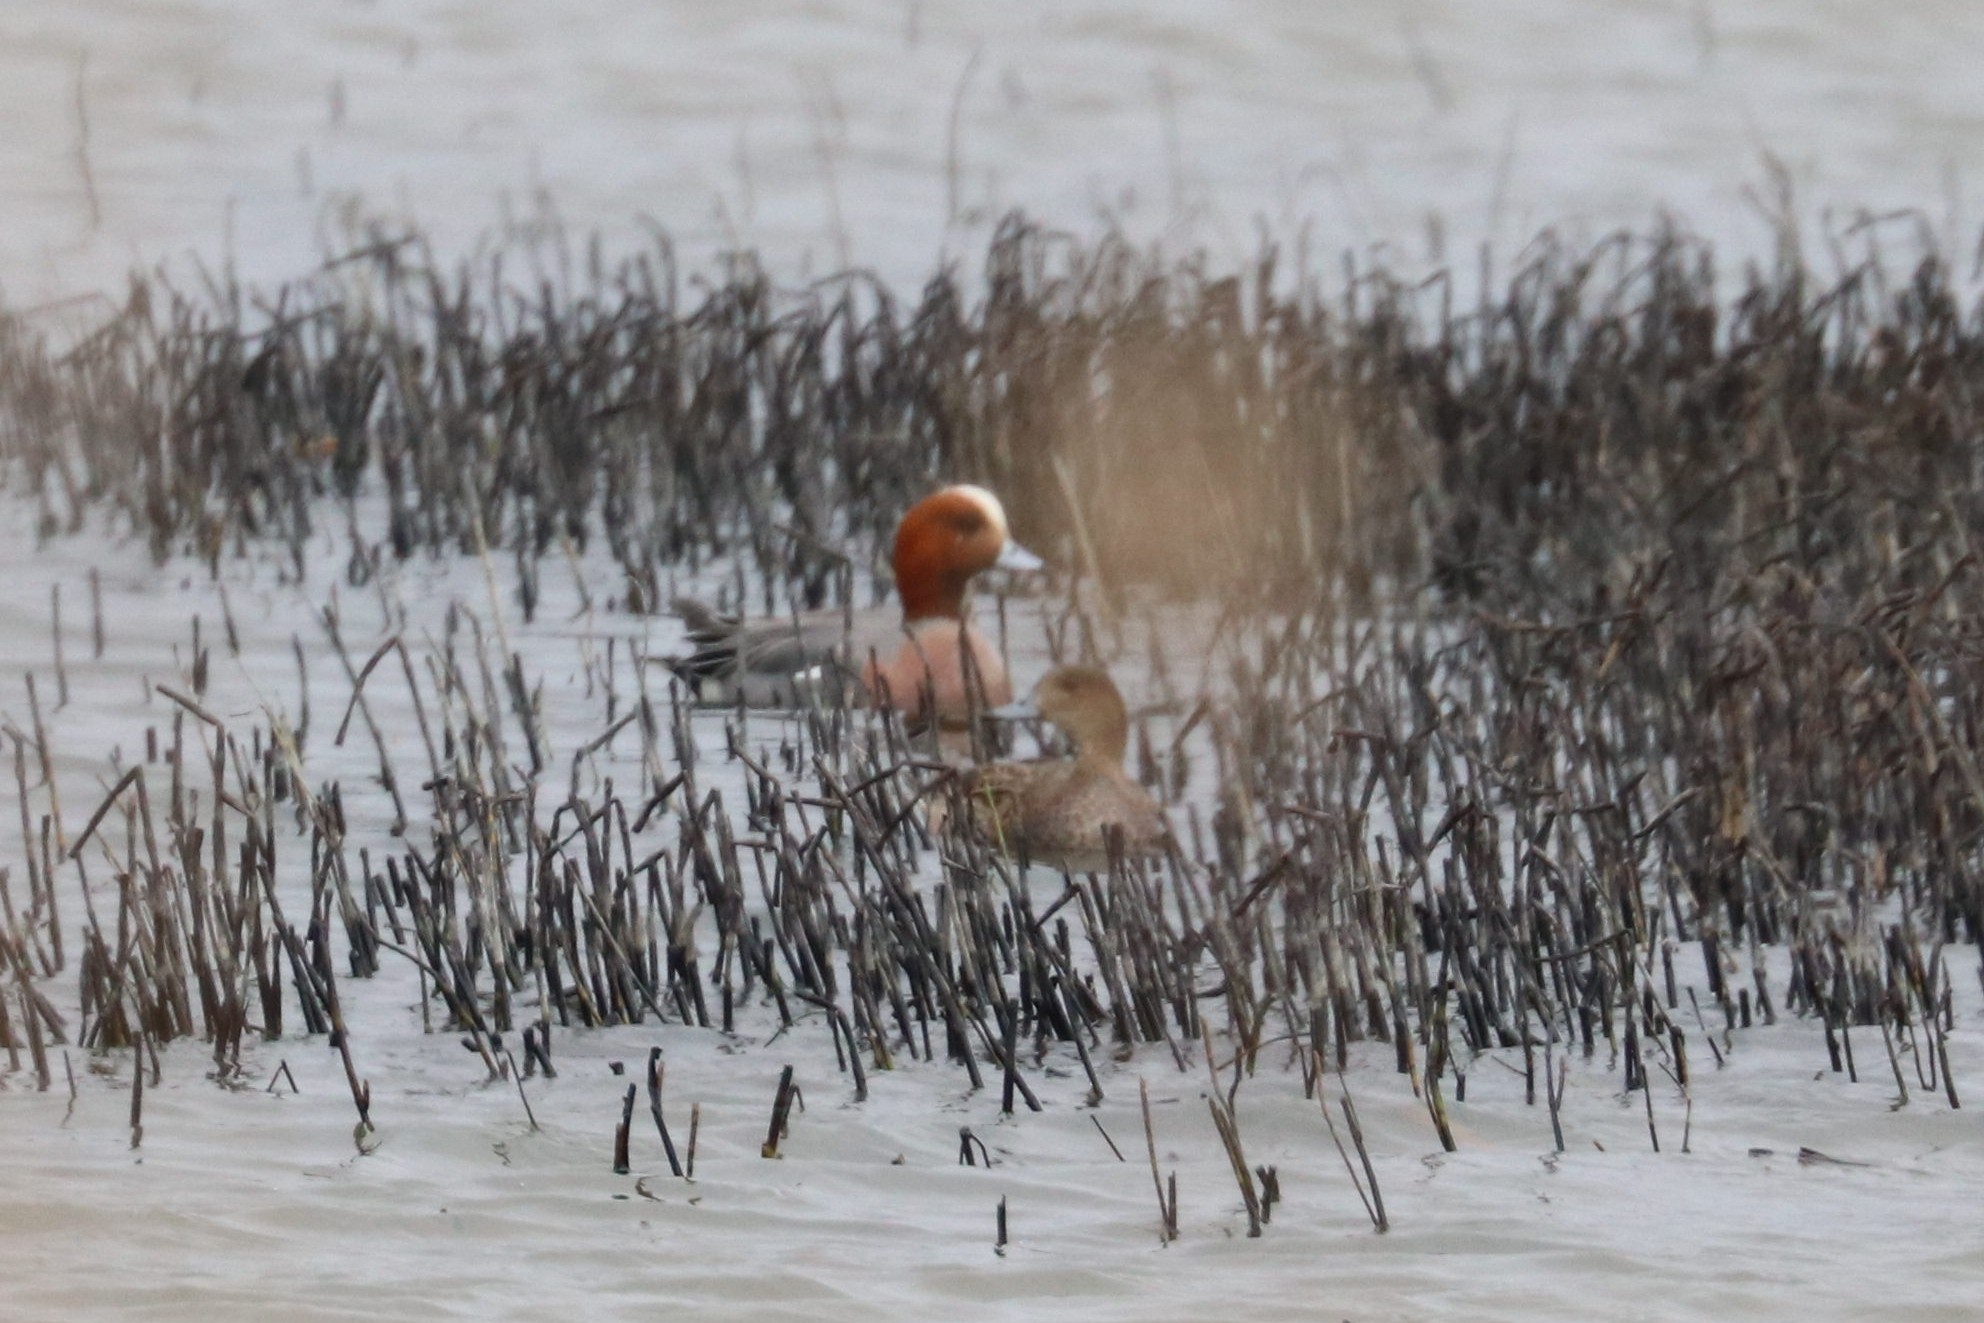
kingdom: Animalia
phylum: Chordata
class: Aves
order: Anseriformes
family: Anatidae
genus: Mareca
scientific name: Mareca penelope
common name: Eurasian wigeon
